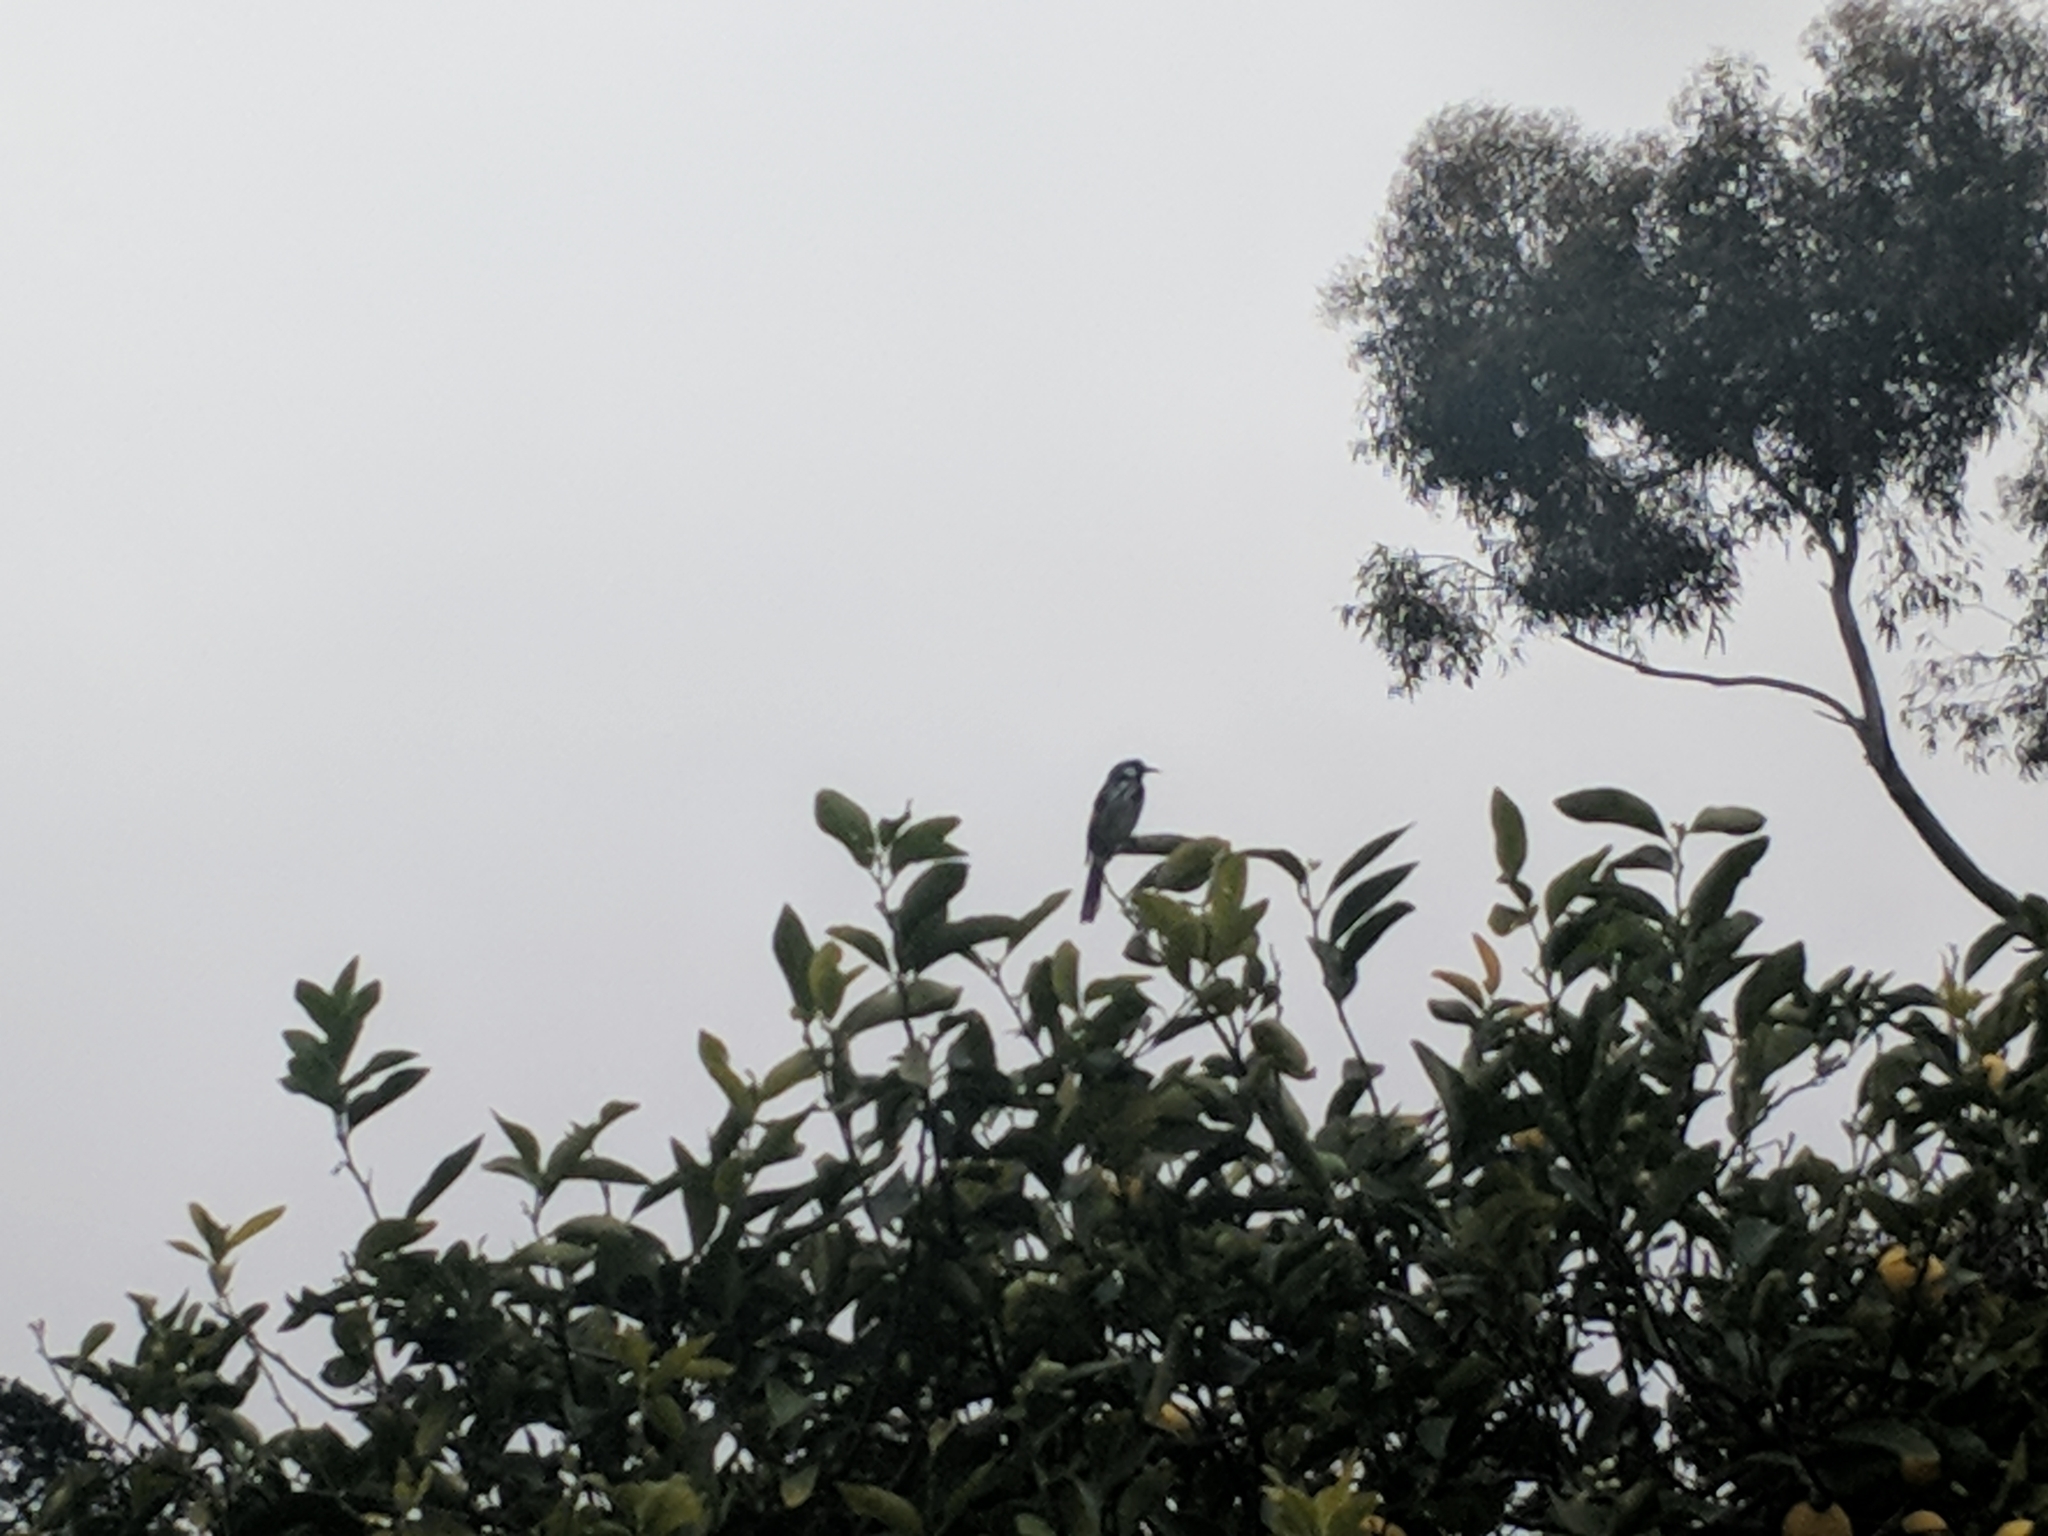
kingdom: Animalia
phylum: Chordata
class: Aves
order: Passeriformes
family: Meliphagidae
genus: Phylidonyris
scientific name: Phylidonyris novaehollandiae
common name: New holland honeyeater
